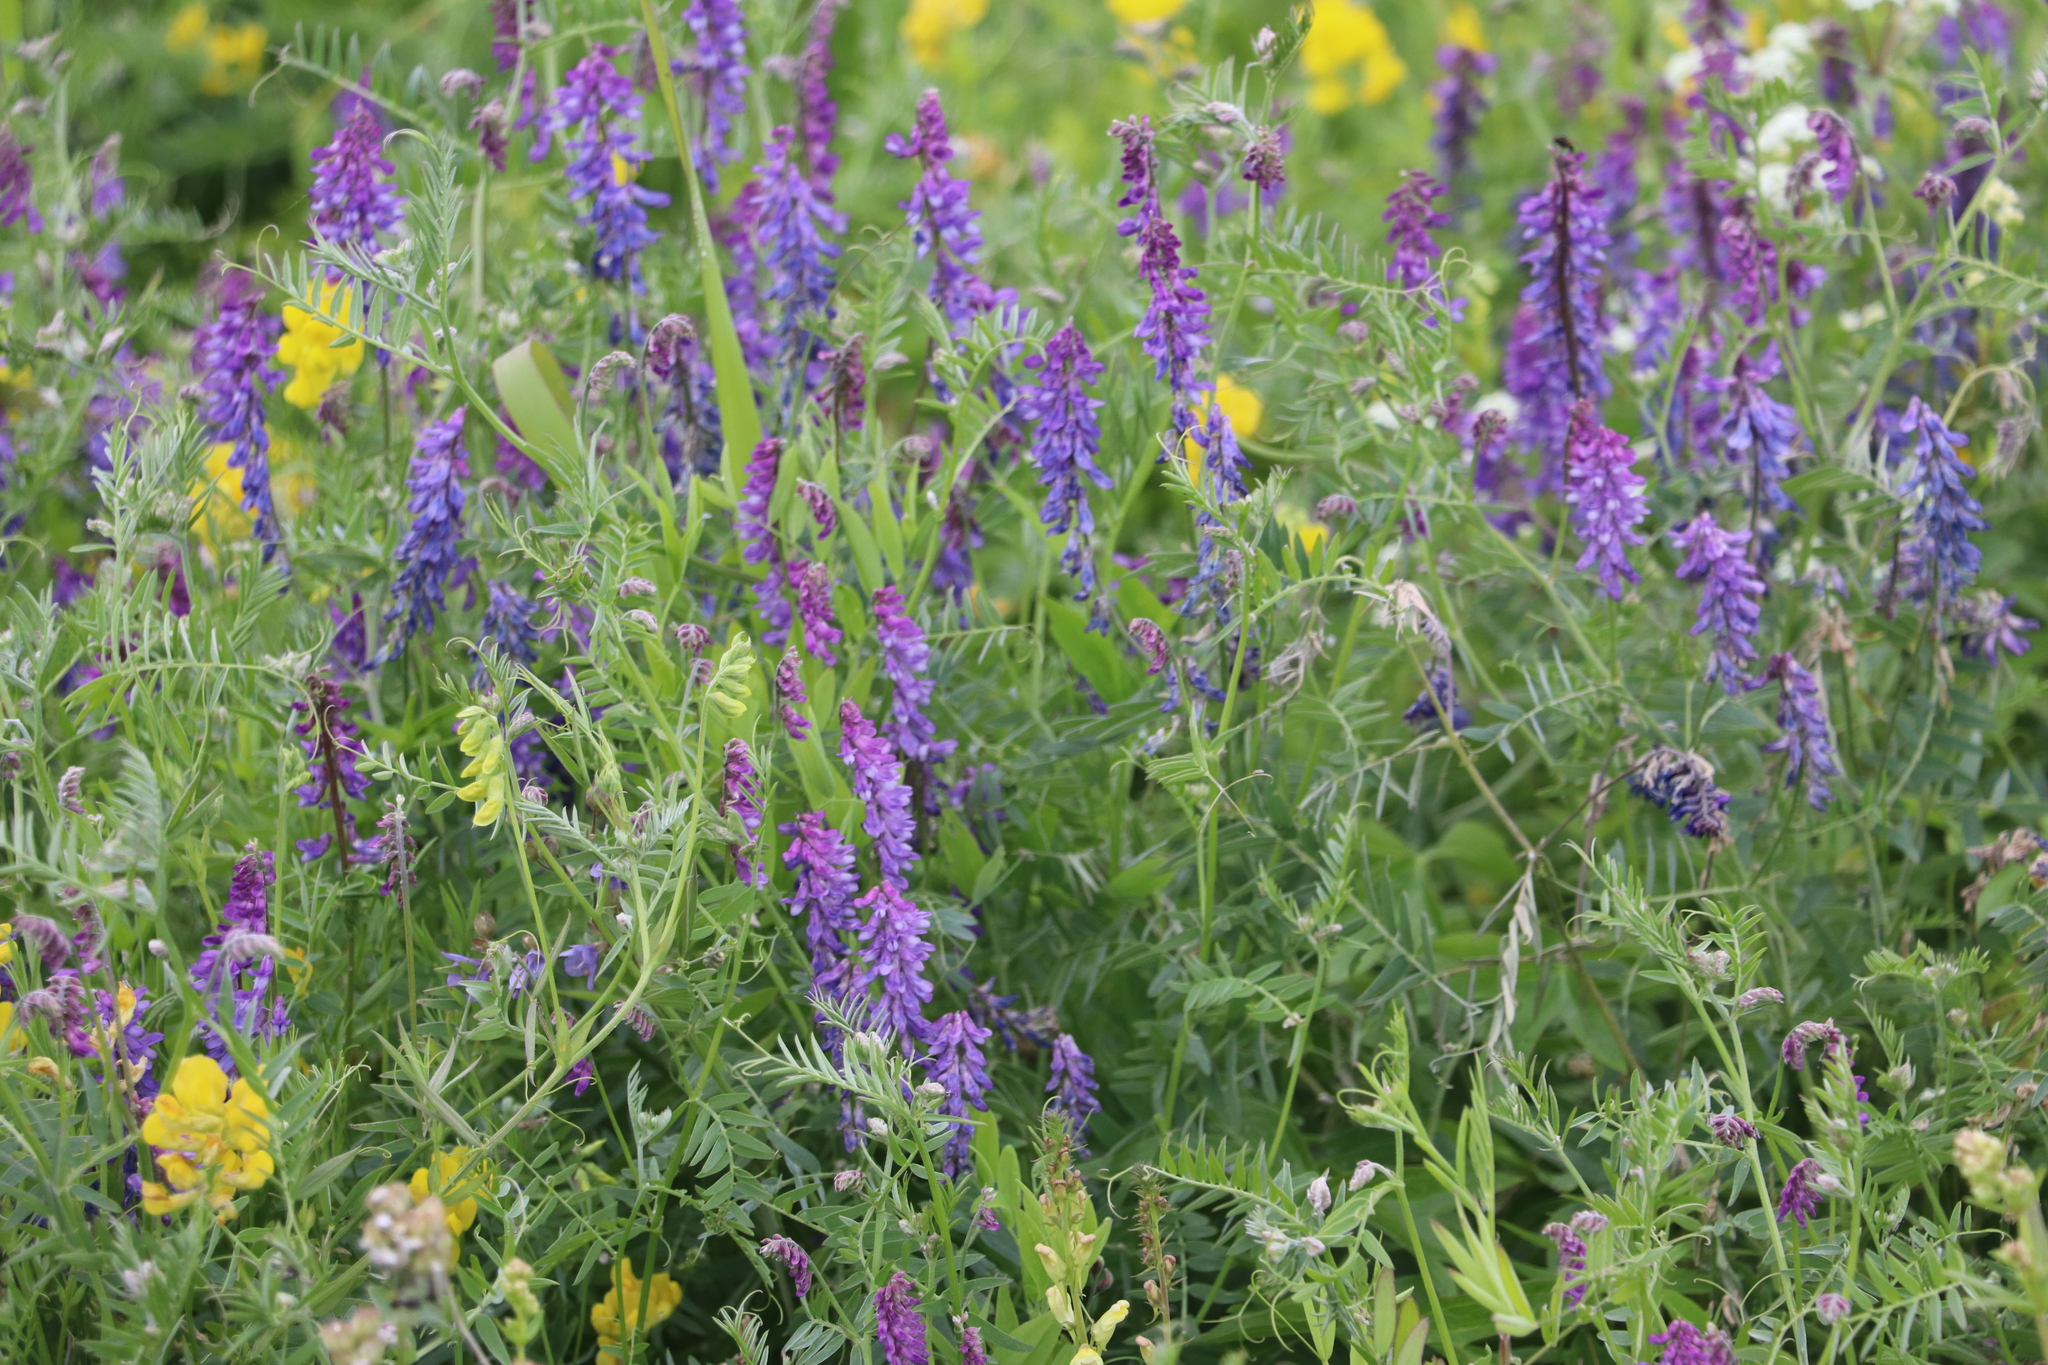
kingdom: Plantae
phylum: Tracheophyta
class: Magnoliopsida
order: Fabales
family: Fabaceae
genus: Vicia
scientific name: Vicia cracca
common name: Bird vetch
